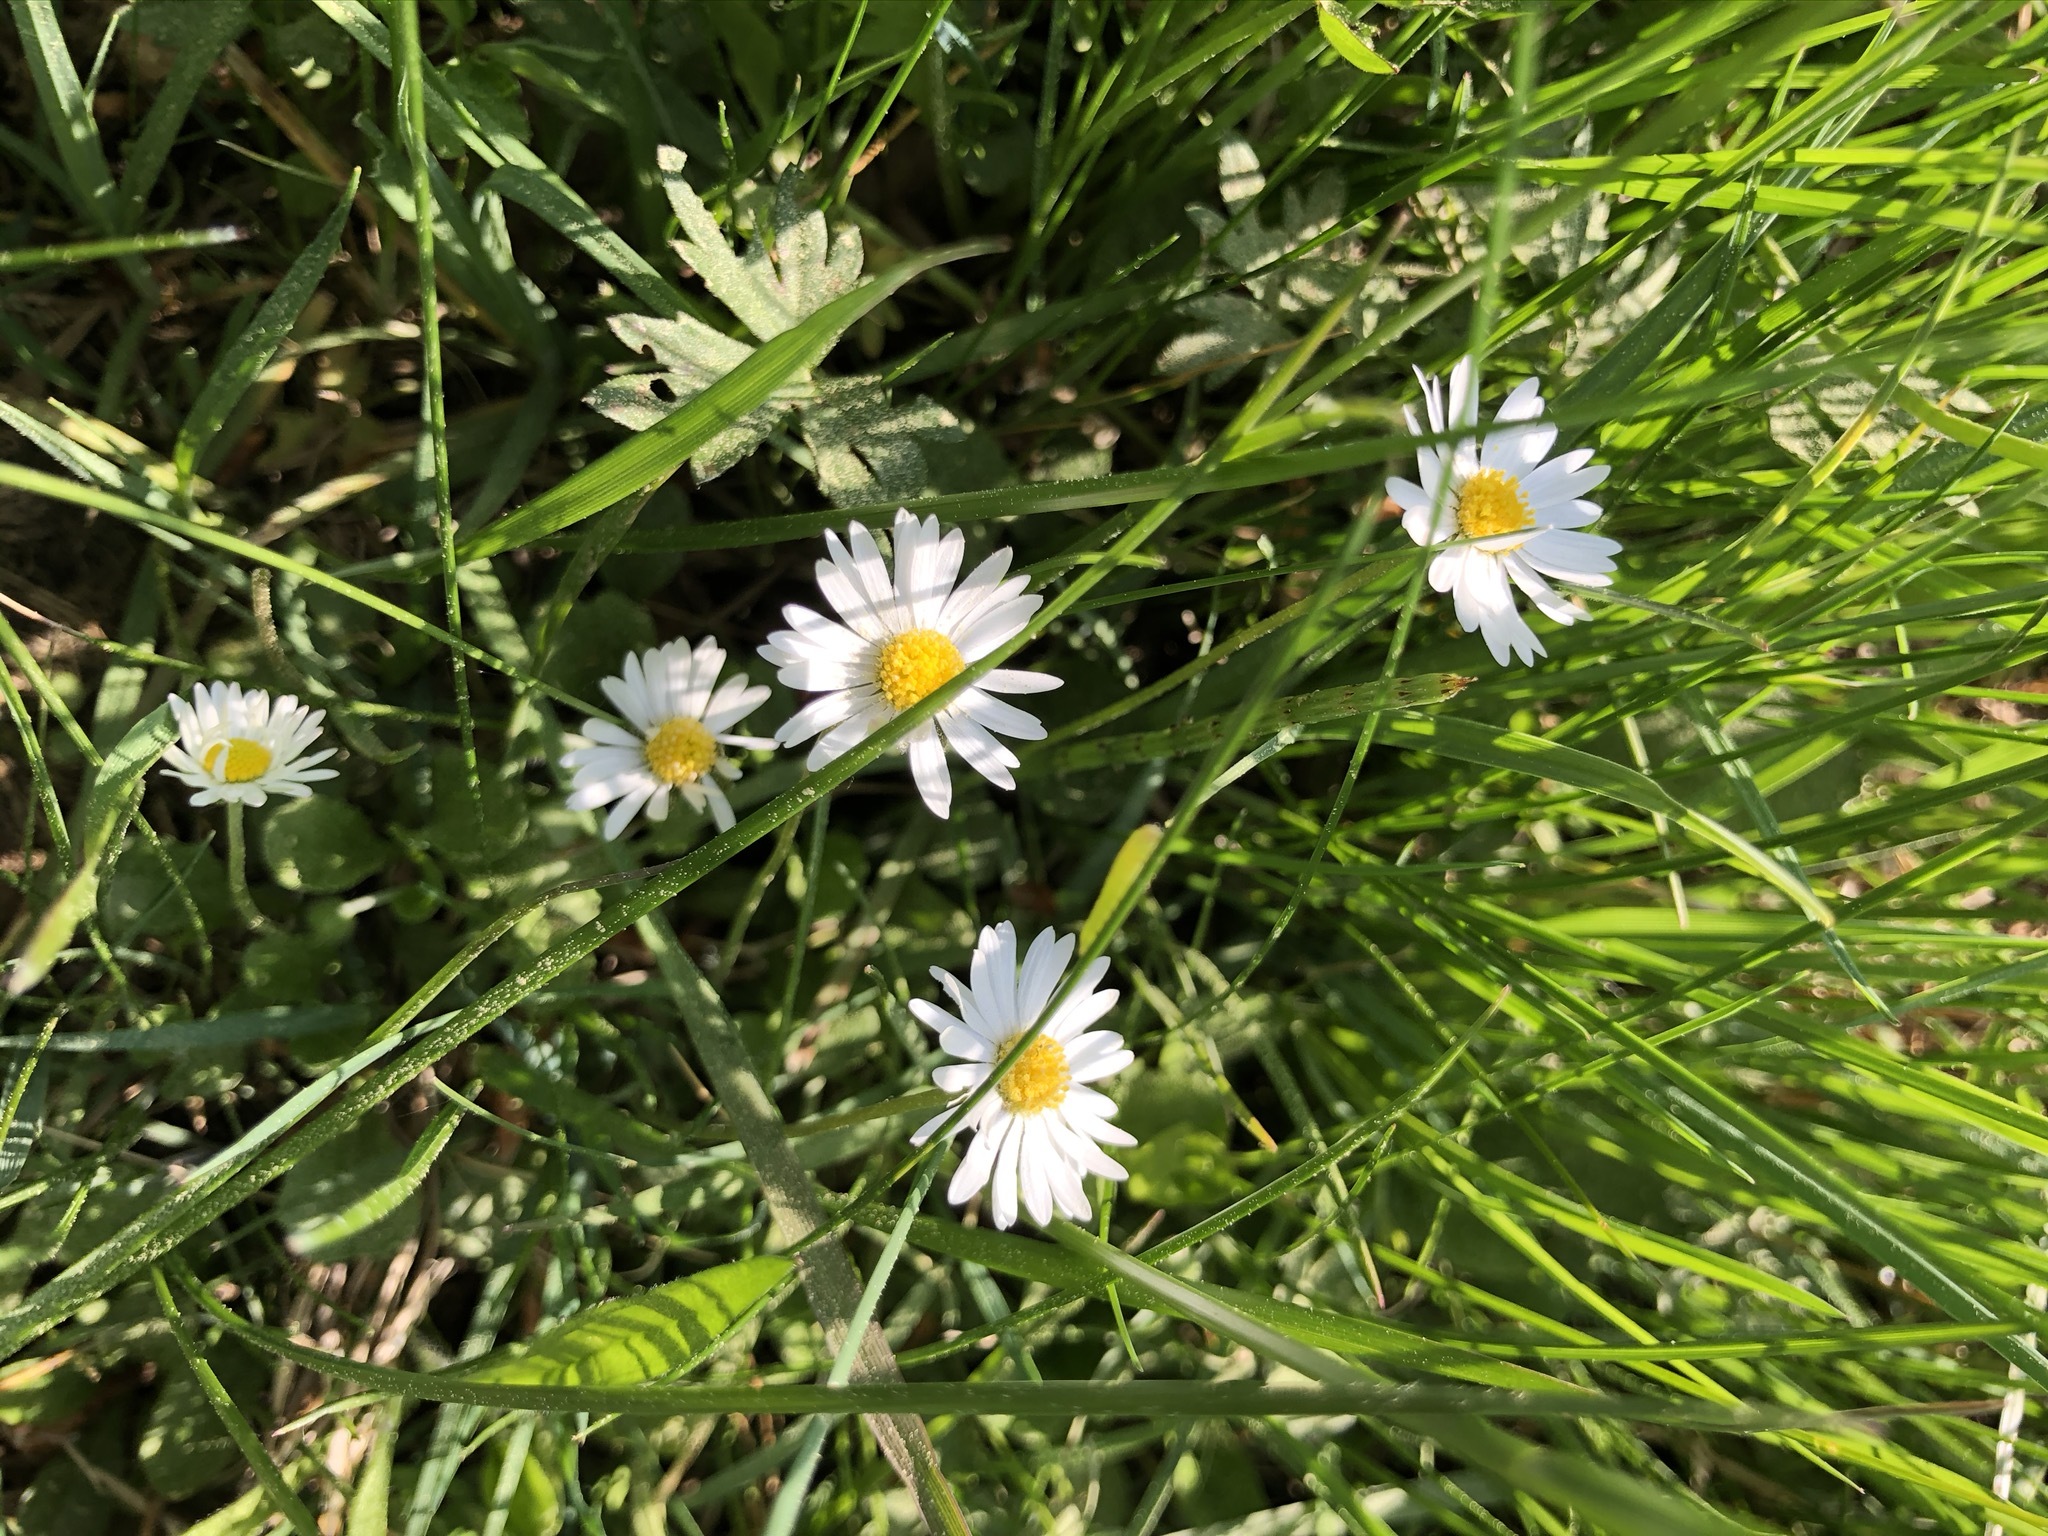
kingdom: Plantae
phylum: Tracheophyta
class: Magnoliopsida
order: Asterales
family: Asteraceae
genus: Bellis
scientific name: Bellis perennis
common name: Lawndaisy
